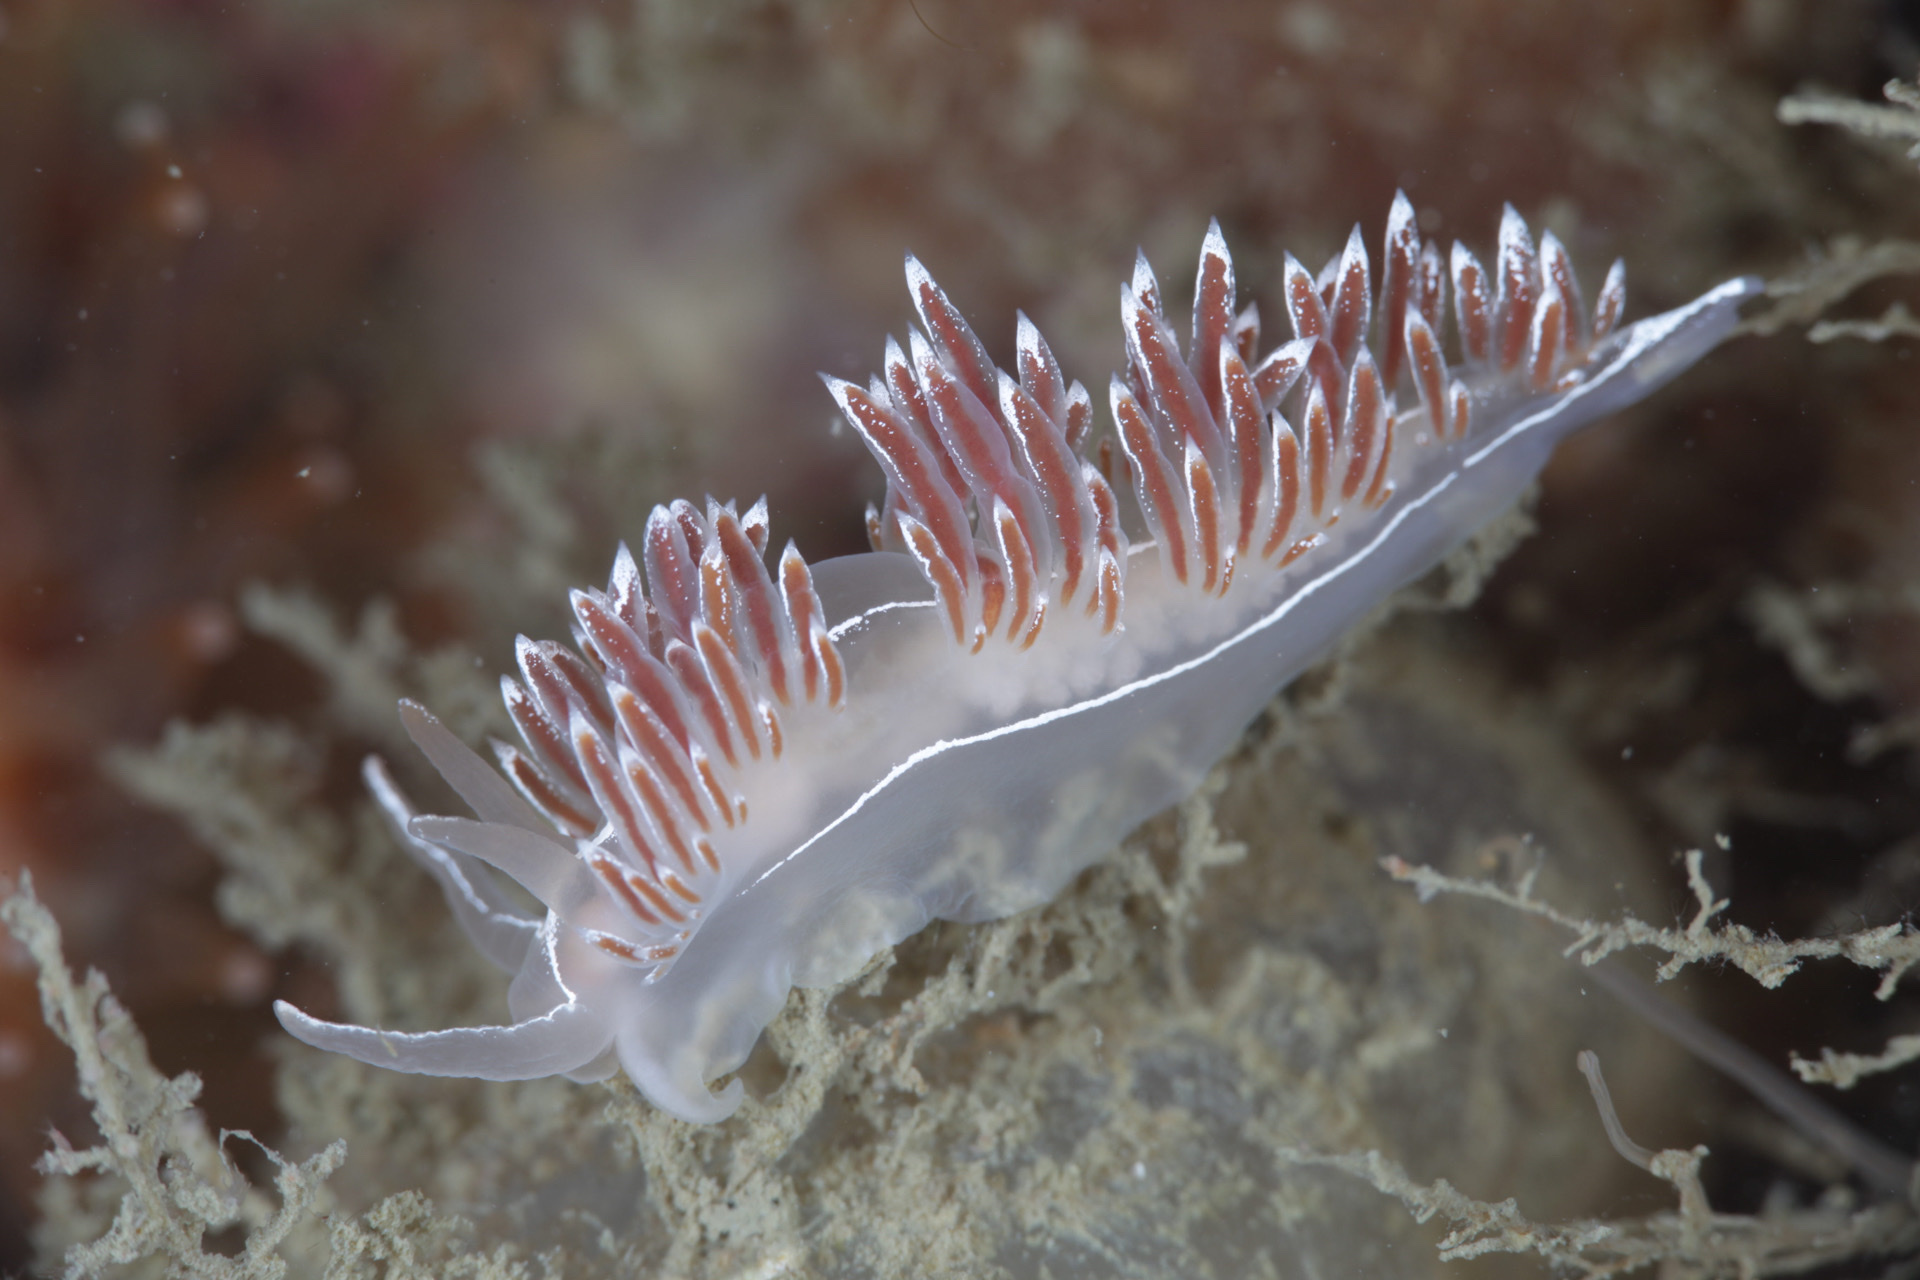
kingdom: Animalia
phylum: Mollusca
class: Gastropoda
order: Nudibranchia
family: Coryphellidae
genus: Coryphella
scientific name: Coryphella lineata
